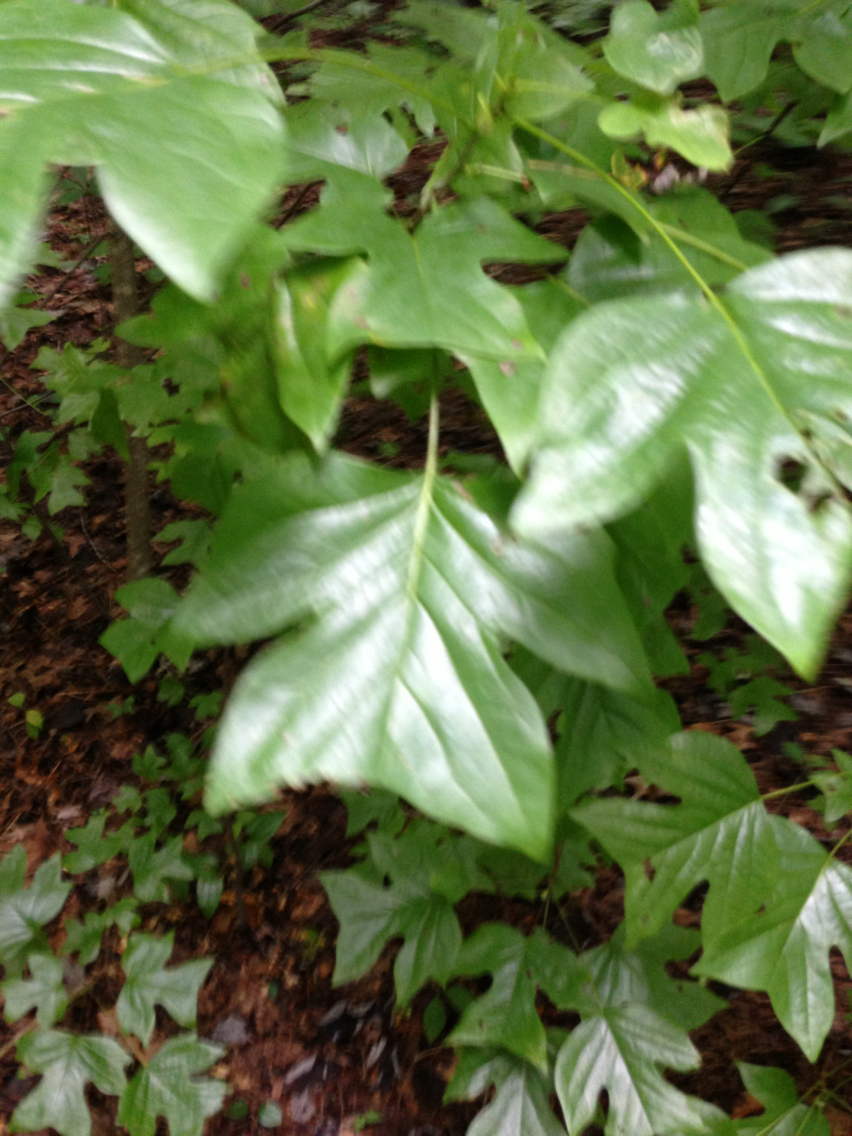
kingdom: Plantae
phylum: Tracheophyta
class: Magnoliopsida
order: Magnoliales
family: Magnoliaceae
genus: Liriodendron
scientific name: Liriodendron tulipifera
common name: Tulip tree
